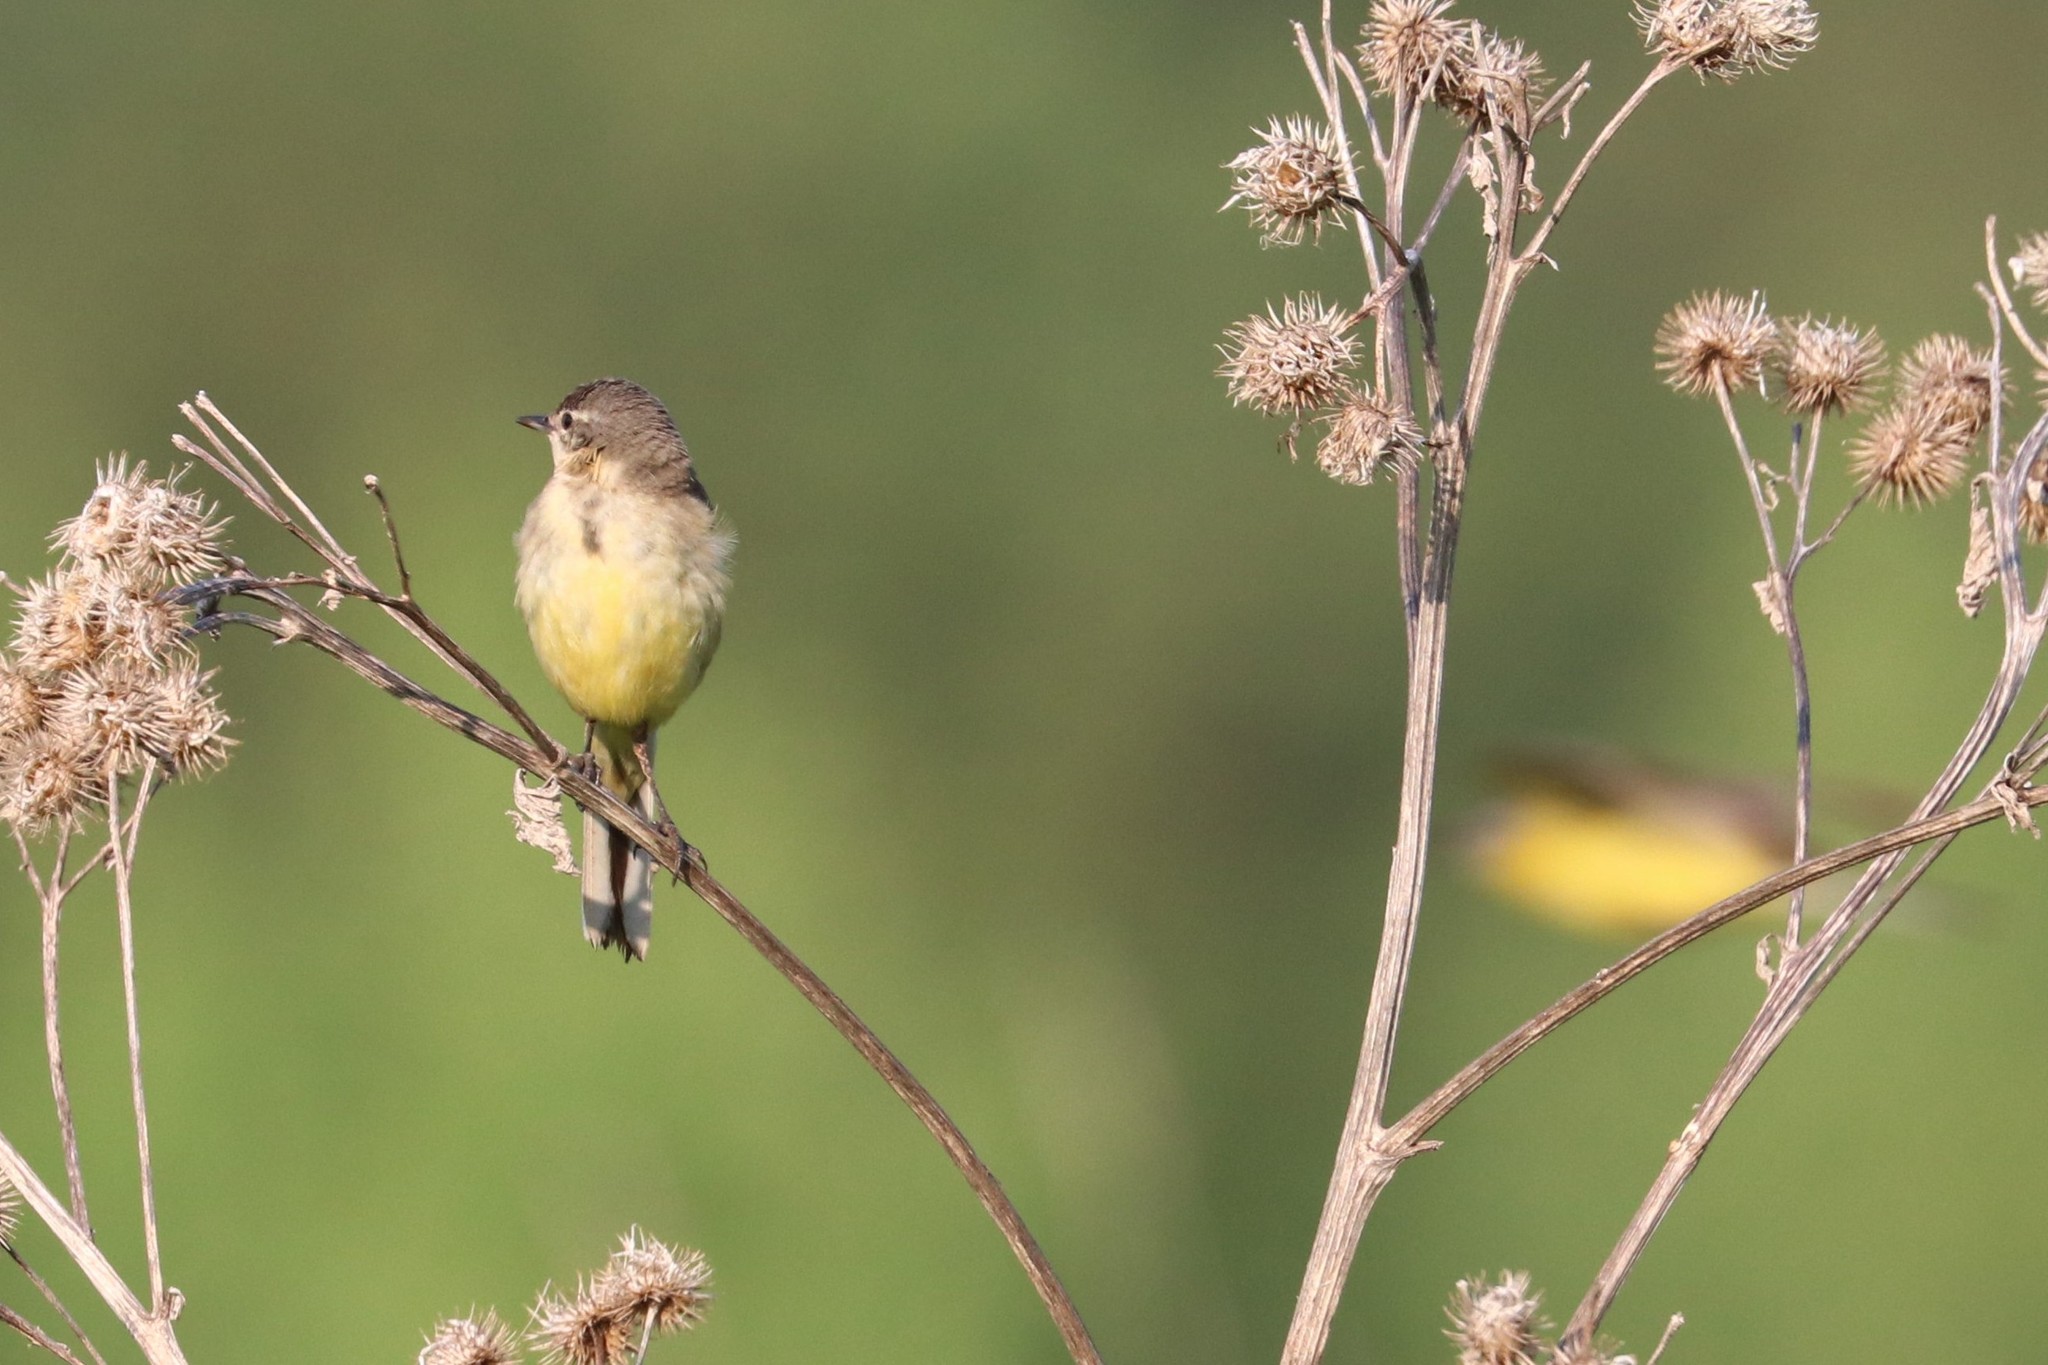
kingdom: Animalia
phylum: Chordata
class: Aves
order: Passeriformes
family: Motacillidae
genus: Motacilla
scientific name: Motacilla flava
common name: Western yellow wagtail
